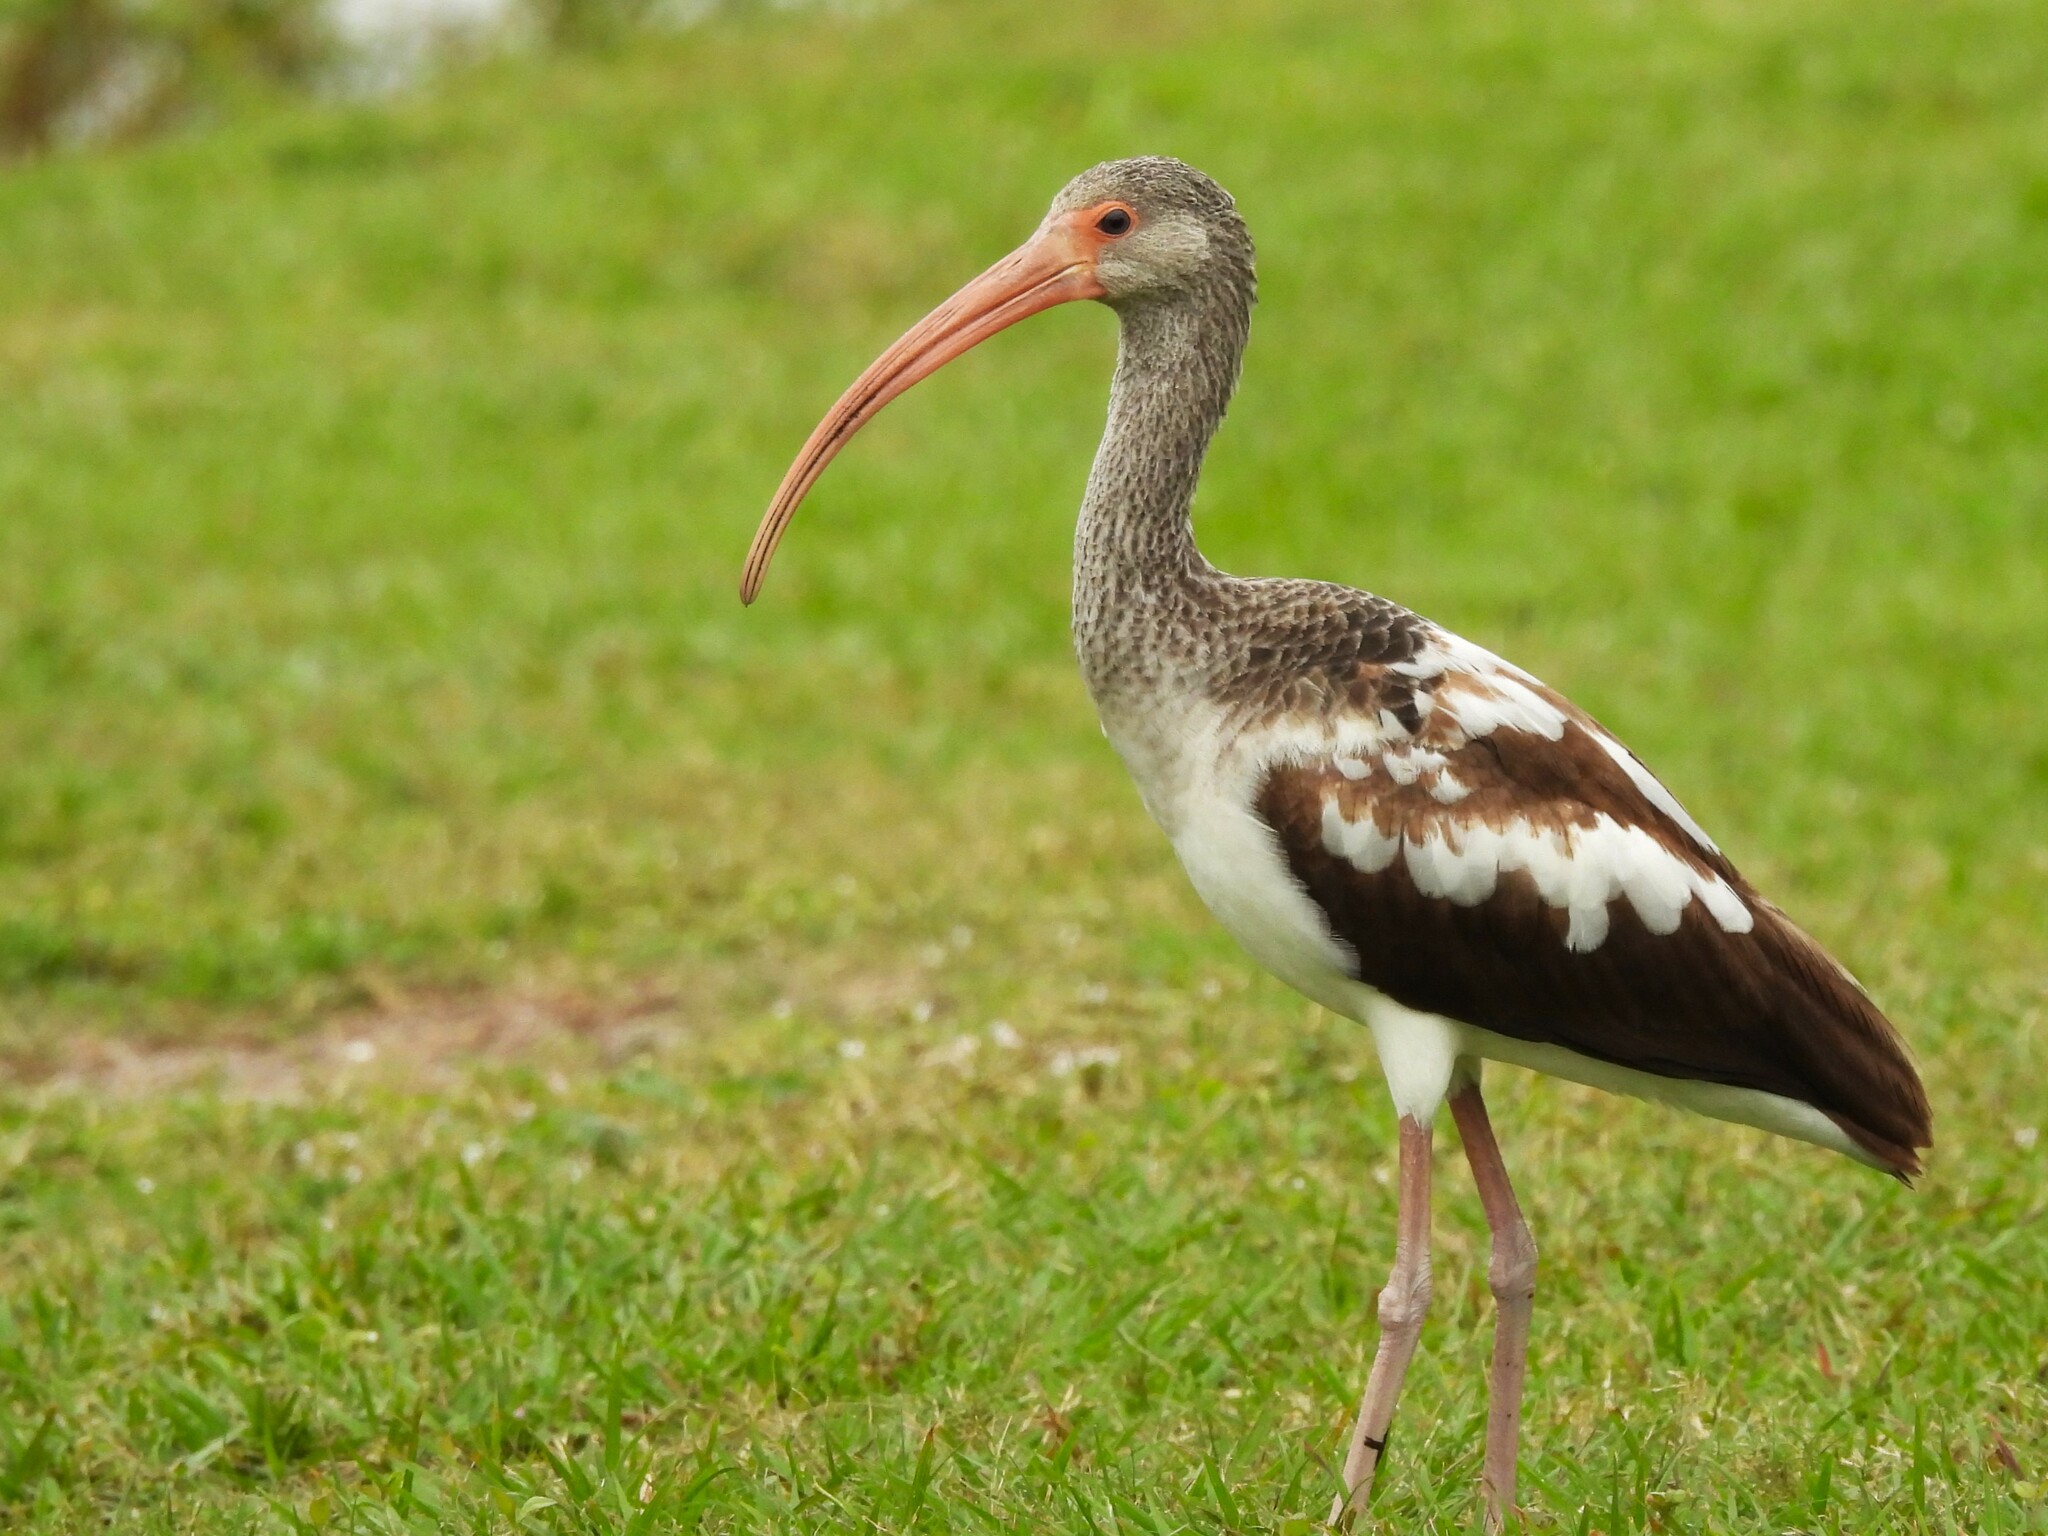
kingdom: Animalia
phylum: Chordata
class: Aves
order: Pelecaniformes
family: Threskiornithidae
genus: Eudocimus
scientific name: Eudocimus albus
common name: White ibis
